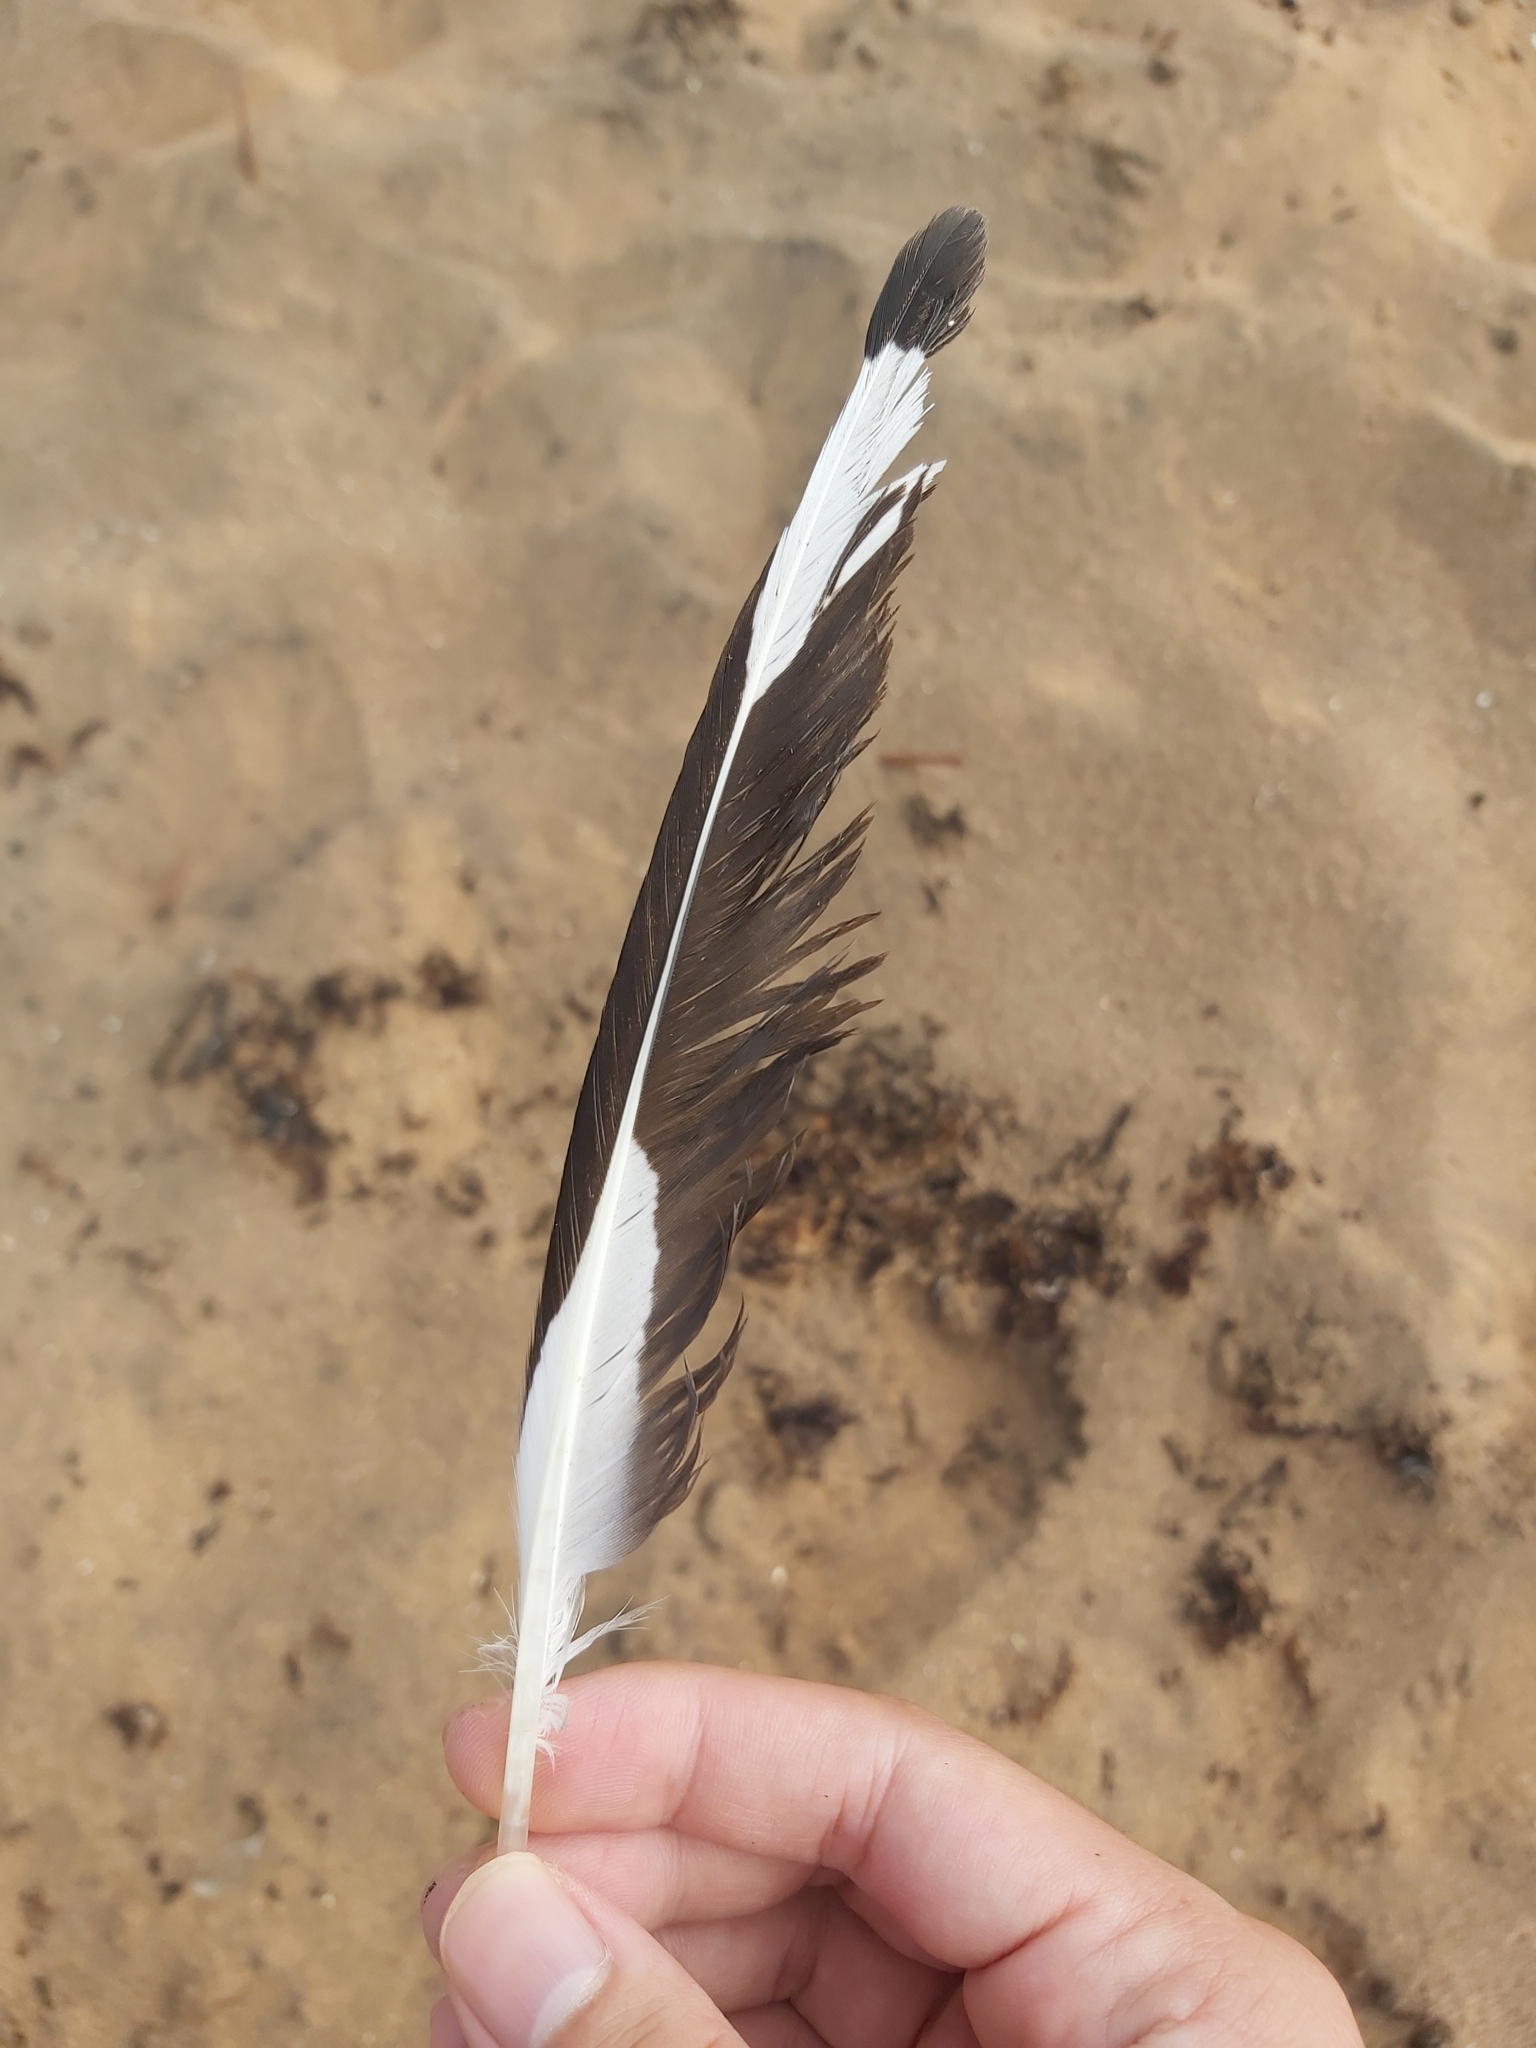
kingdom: Animalia
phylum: Chordata
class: Aves
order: Charadriiformes
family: Laridae
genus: Chroicocephalus
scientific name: Chroicocephalus novaehollandiae
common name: Silver gull
